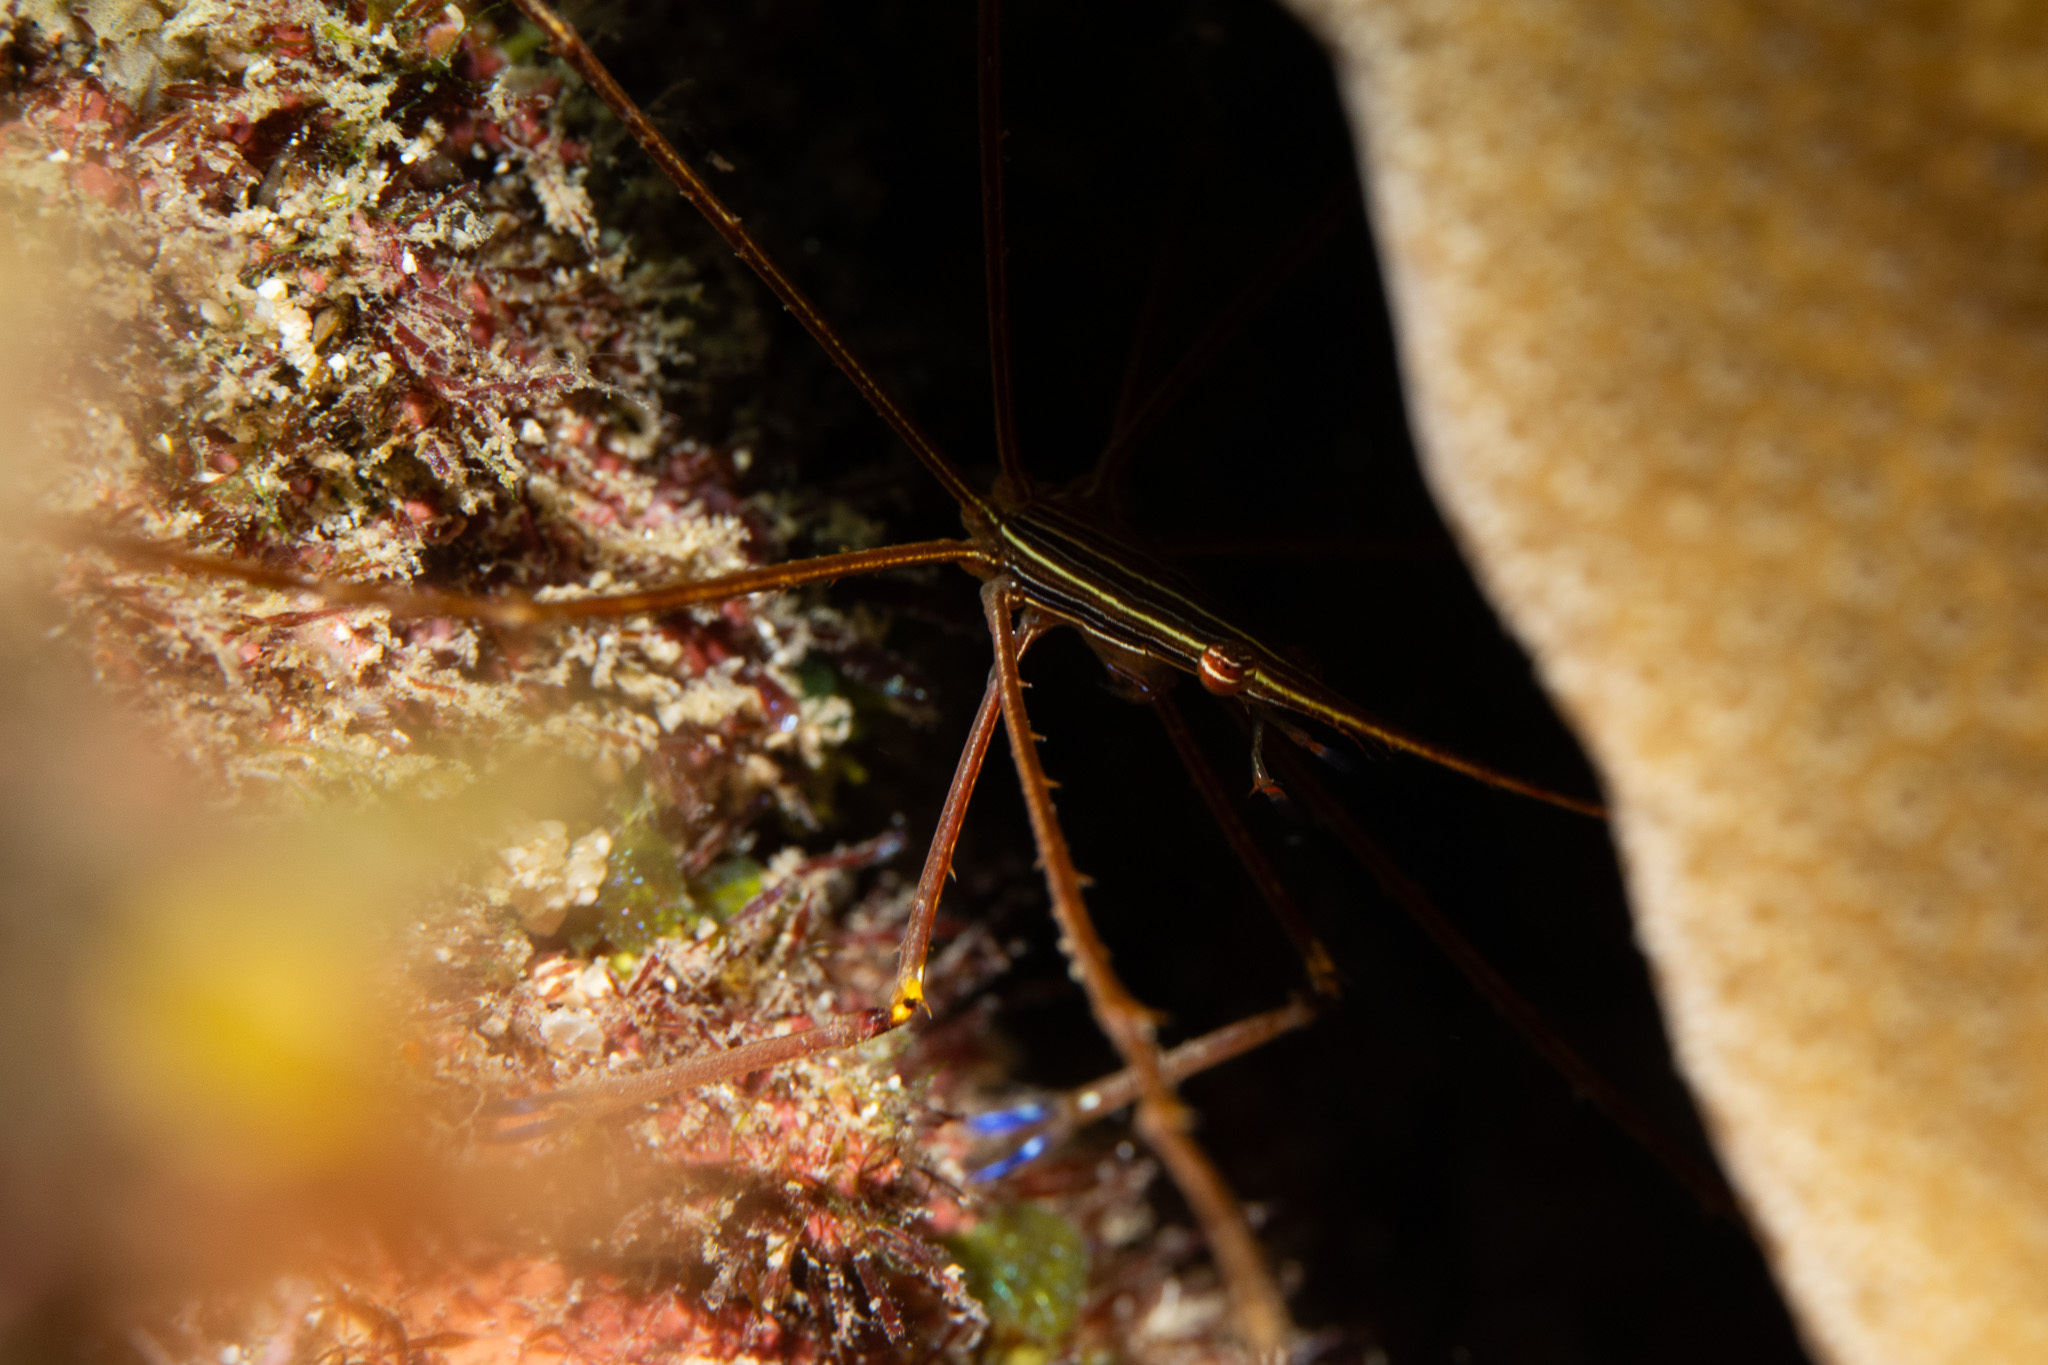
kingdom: Animalia
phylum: Arthropoda
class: Malacostraca
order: Decapoda
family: Inachoididae
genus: Stenorhynchus
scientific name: Stenorhynchus seticornis
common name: Arrow crab
